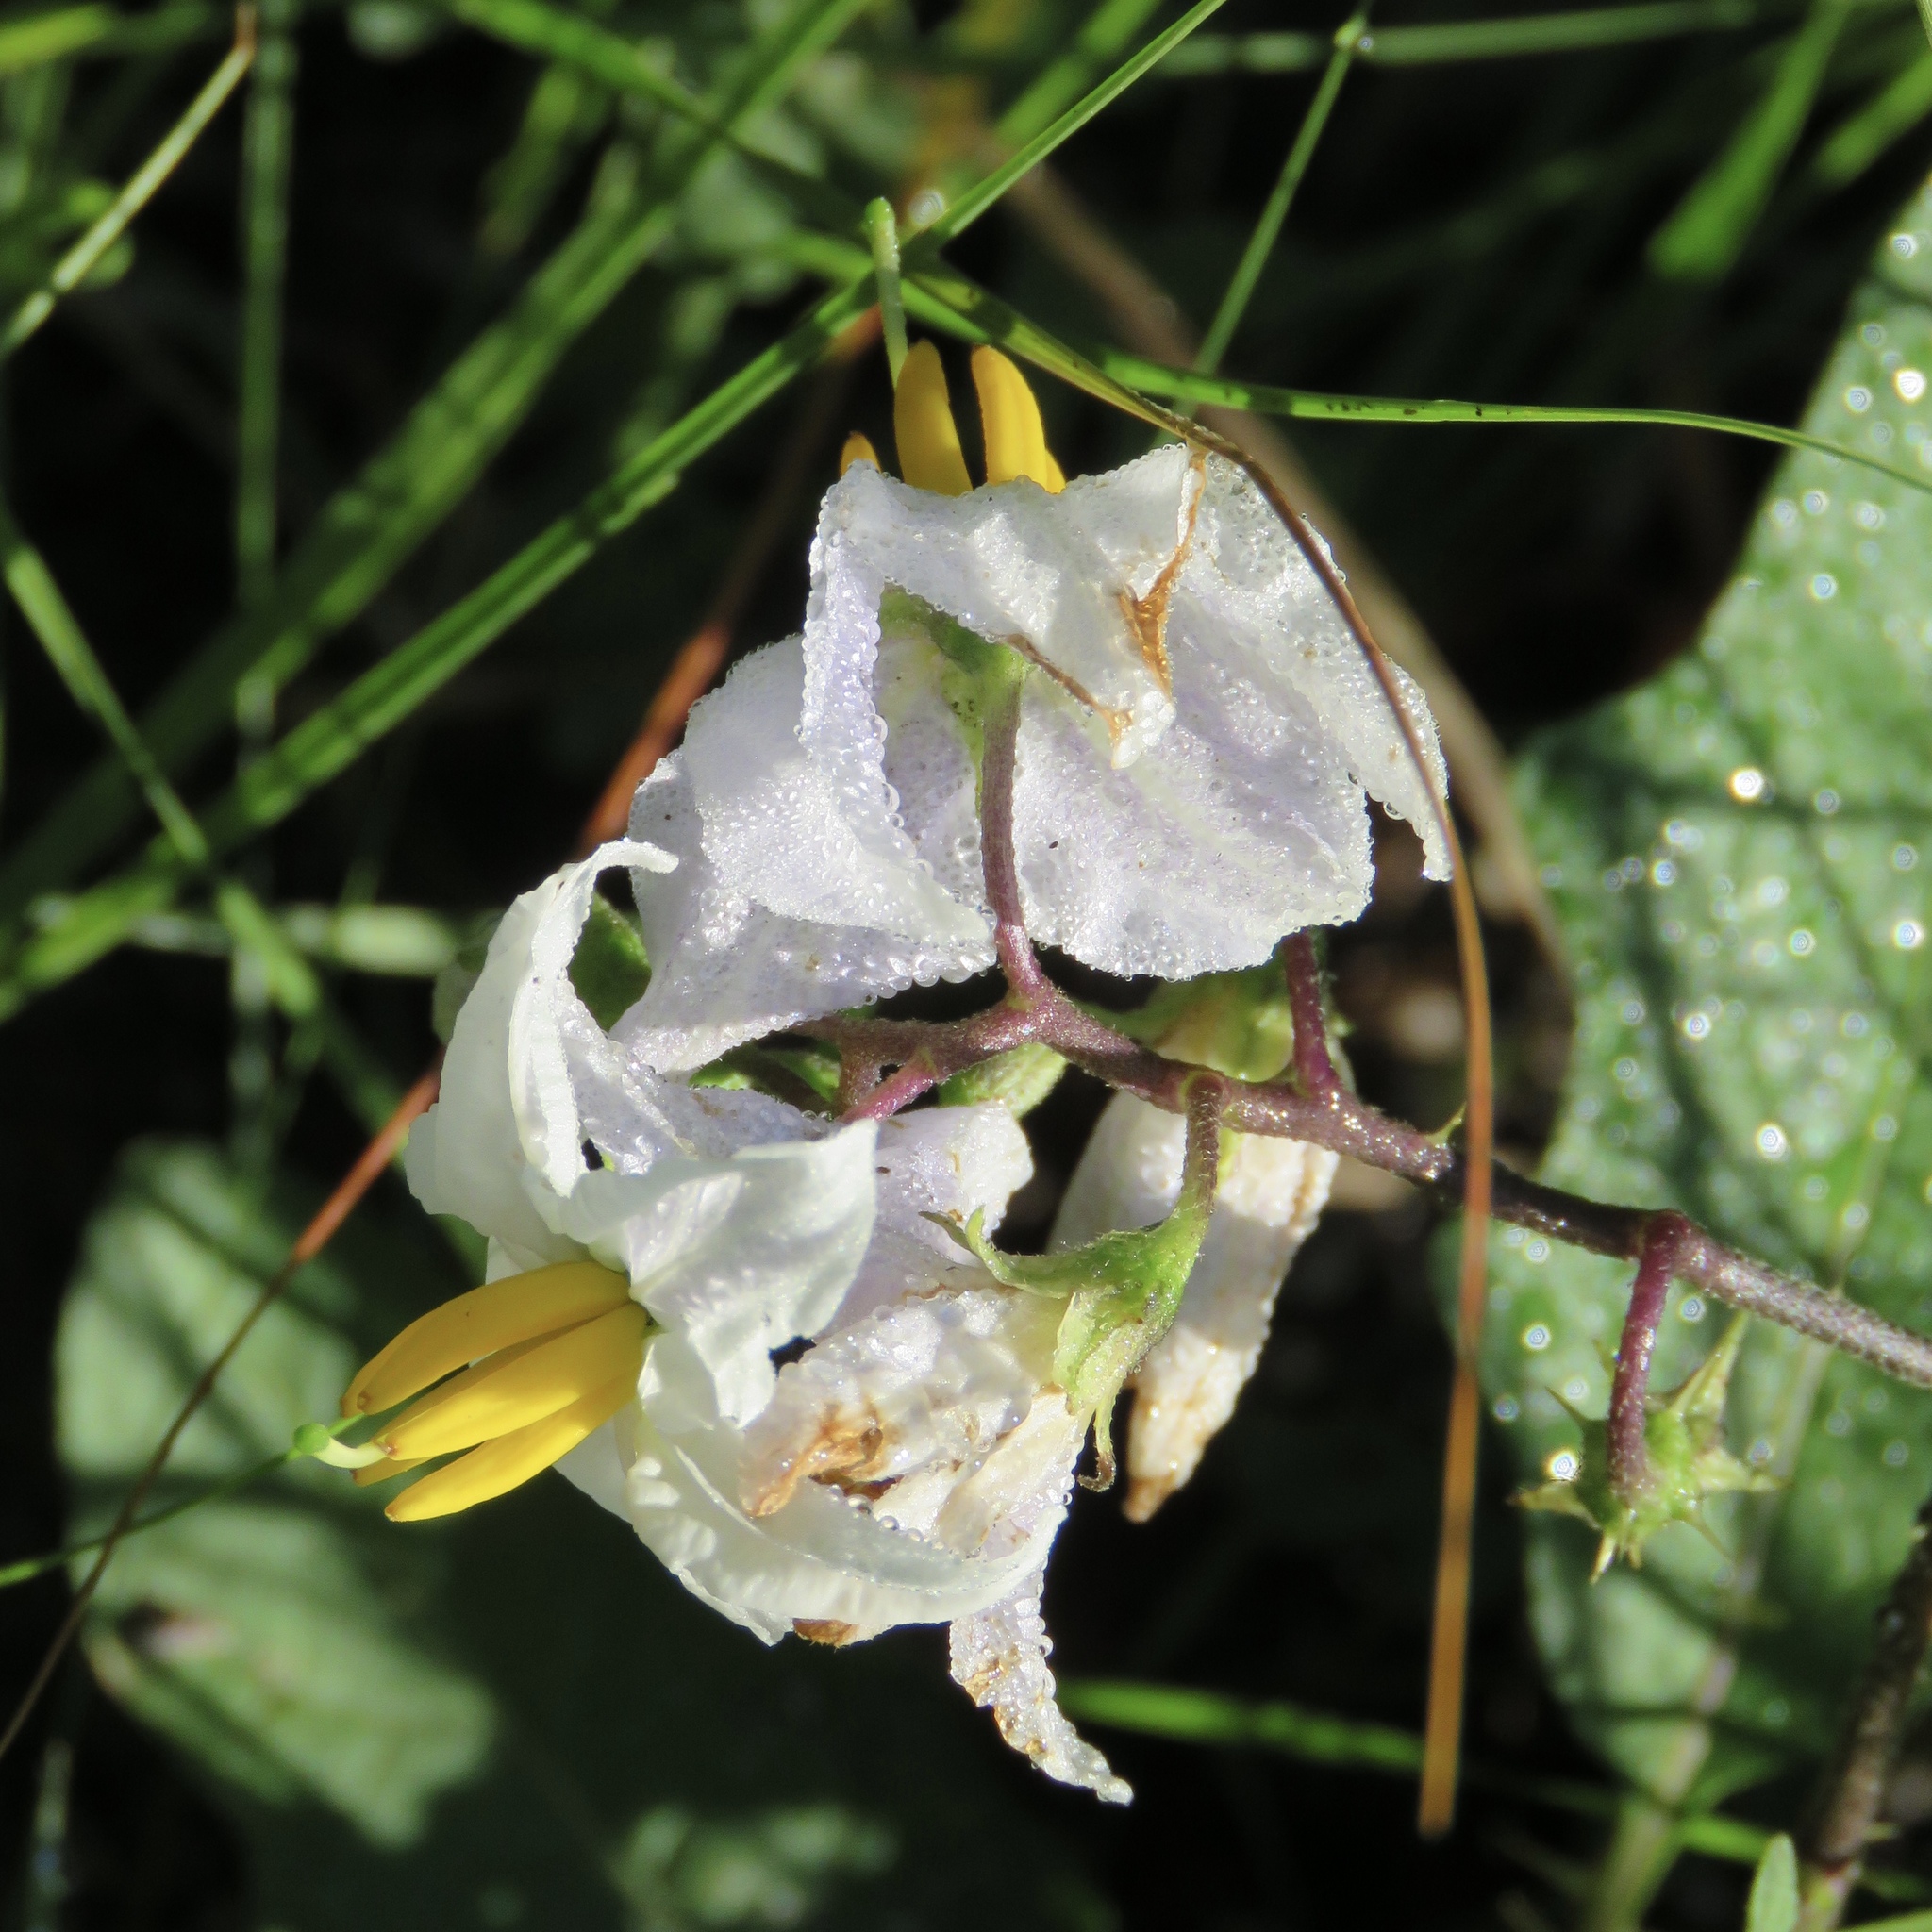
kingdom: Plantae
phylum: Tracheophyta
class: Magnoliopsida
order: Solanales
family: Solanaceae
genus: Solanum
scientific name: Solanum carolinense
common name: Horse-nettle
